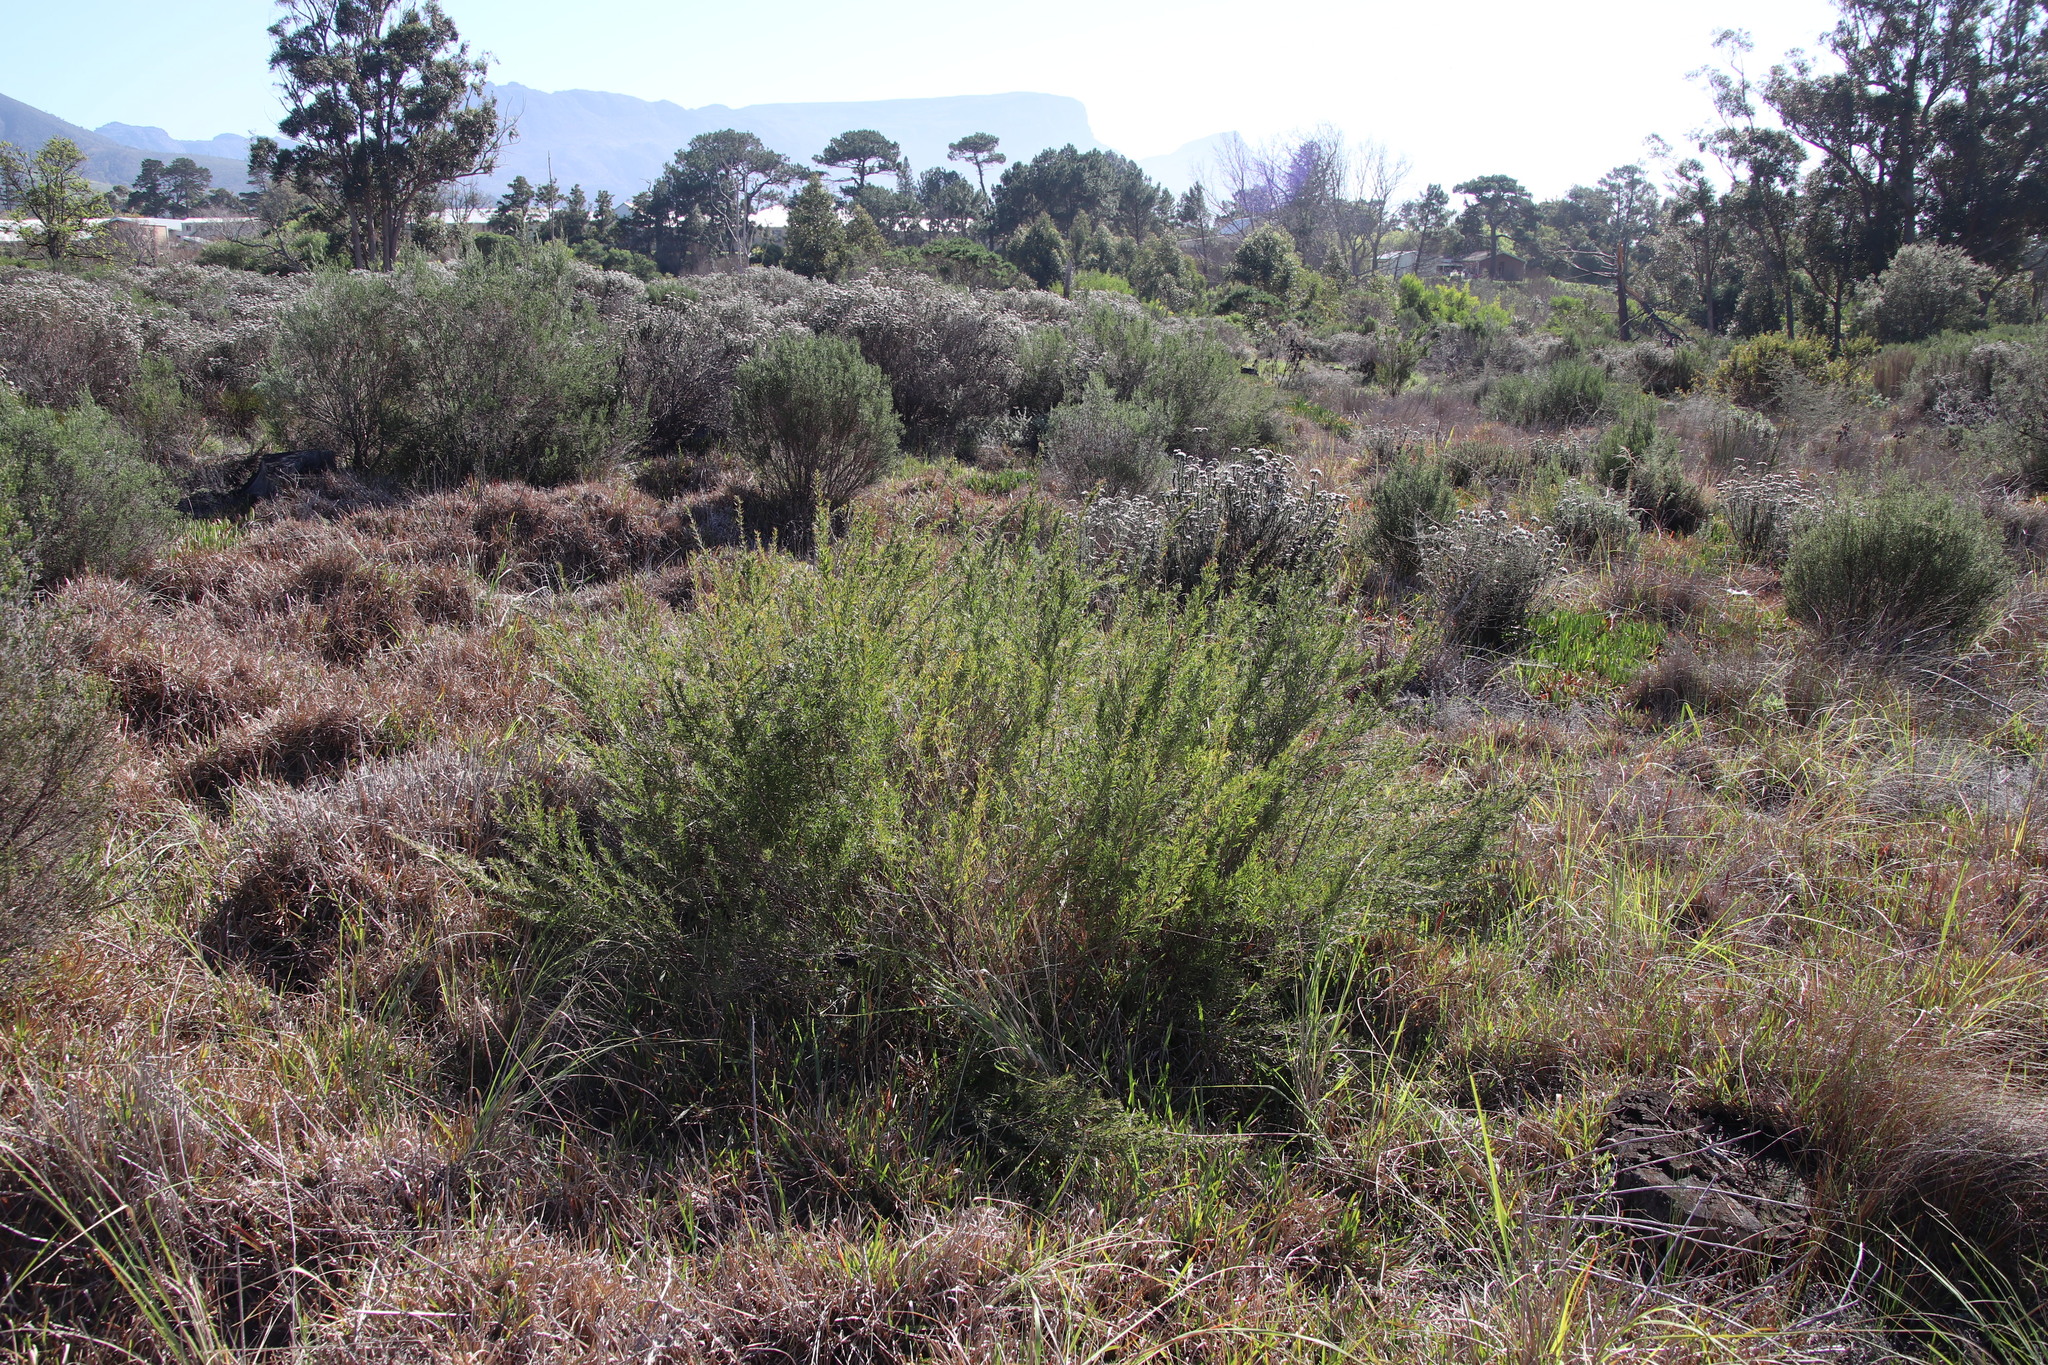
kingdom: Plantae
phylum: Tracheophyta
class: Magnoliopsida
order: Rosales
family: Rosaceae
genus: Cliffortia
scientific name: Cliffortia strobilifera
